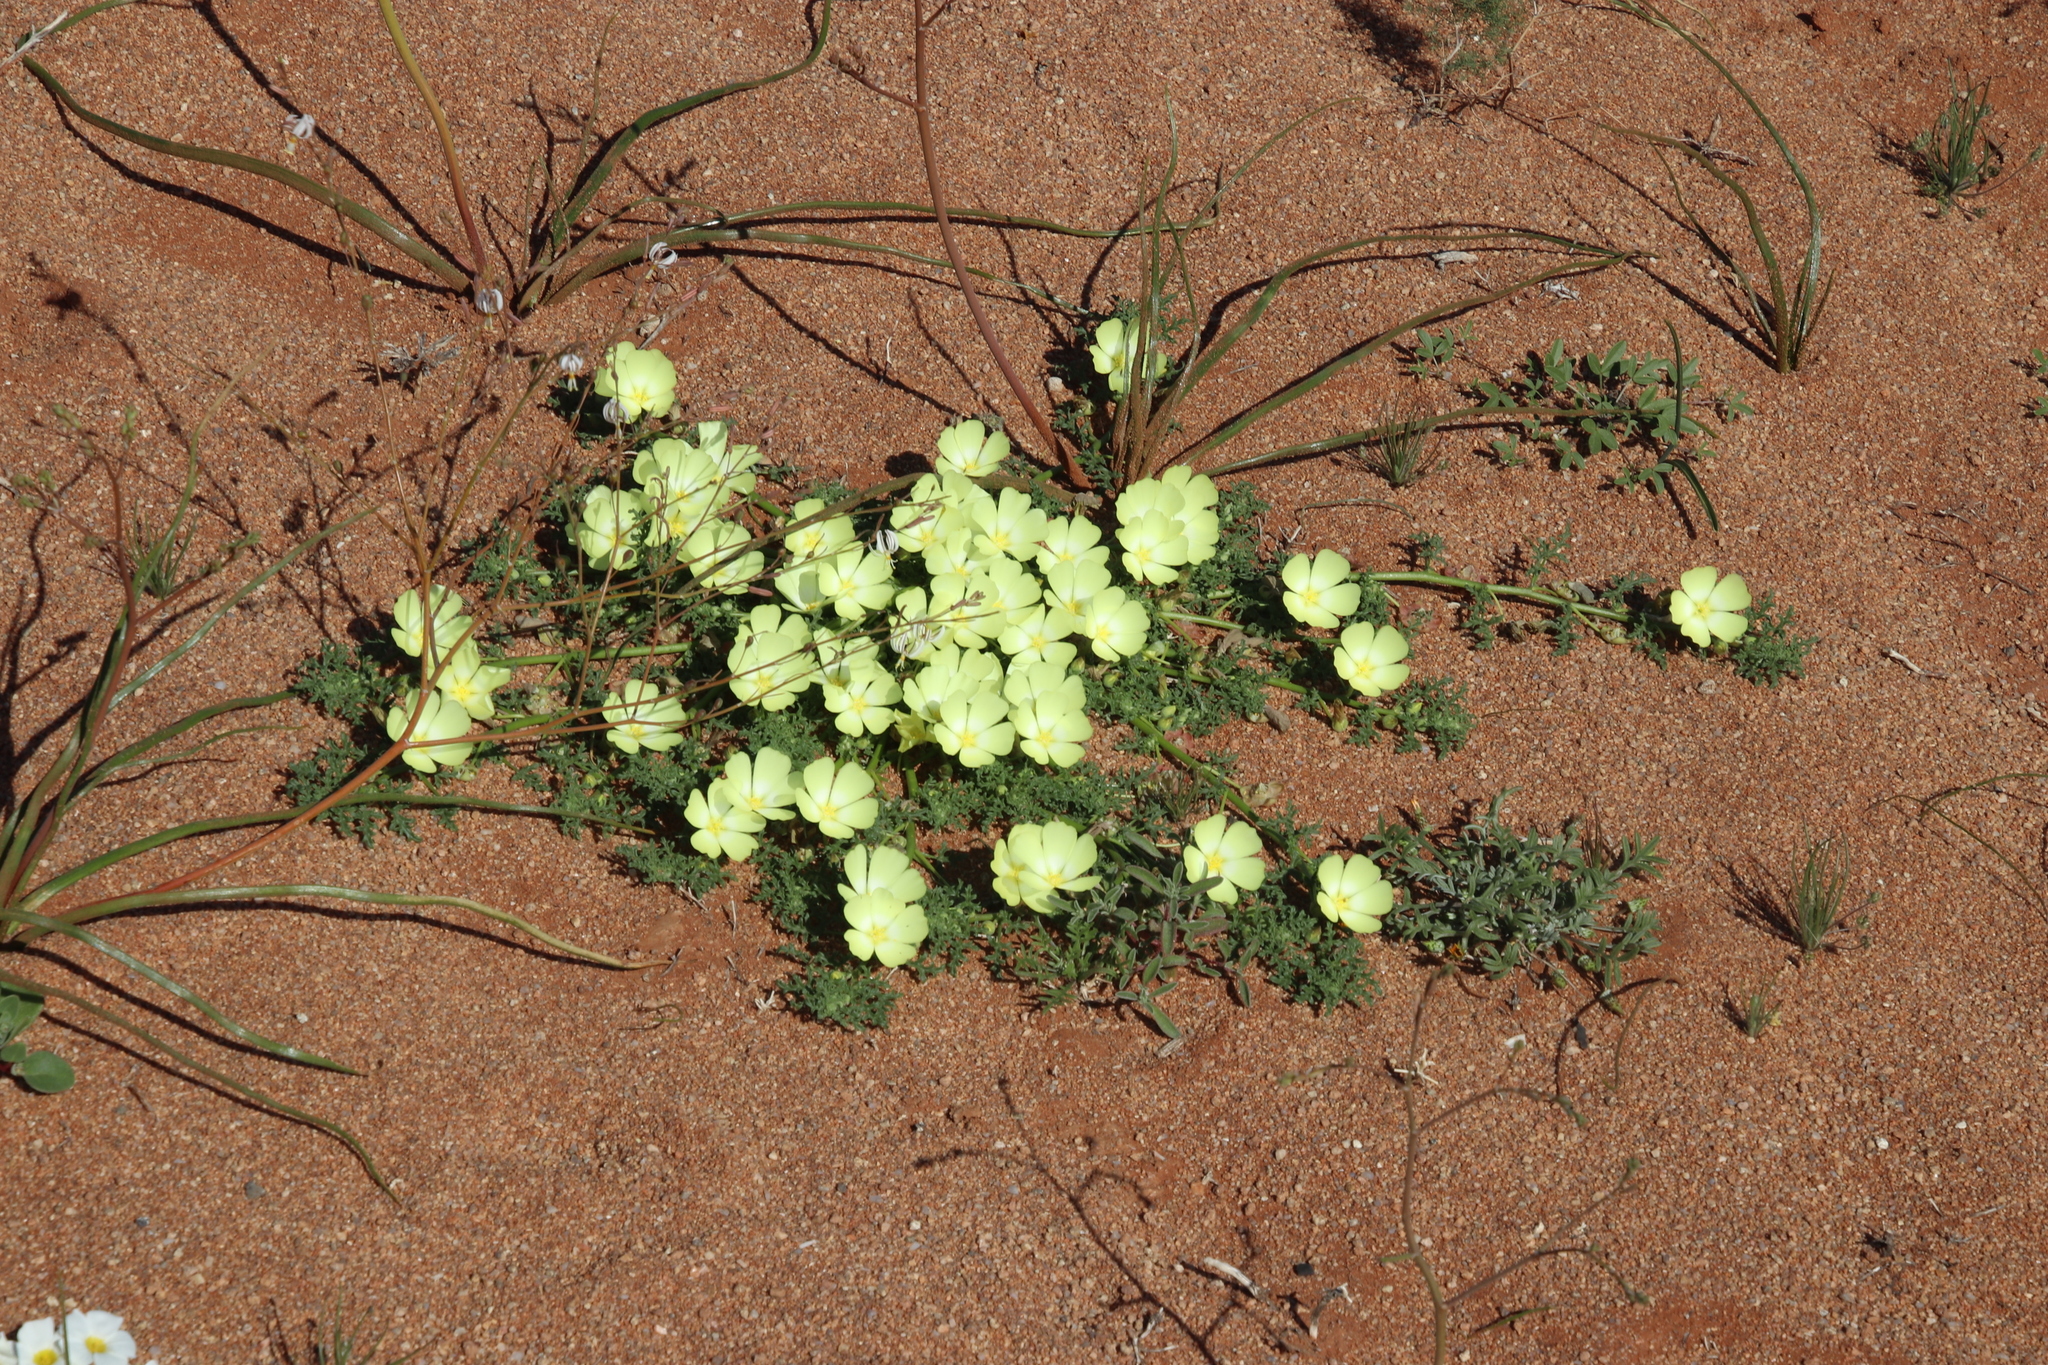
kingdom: Plantae
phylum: Tracheophyta
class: Magnoliopsida
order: Malvales
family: Neuradaceae
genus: Grielum
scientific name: Grielum humifusum
